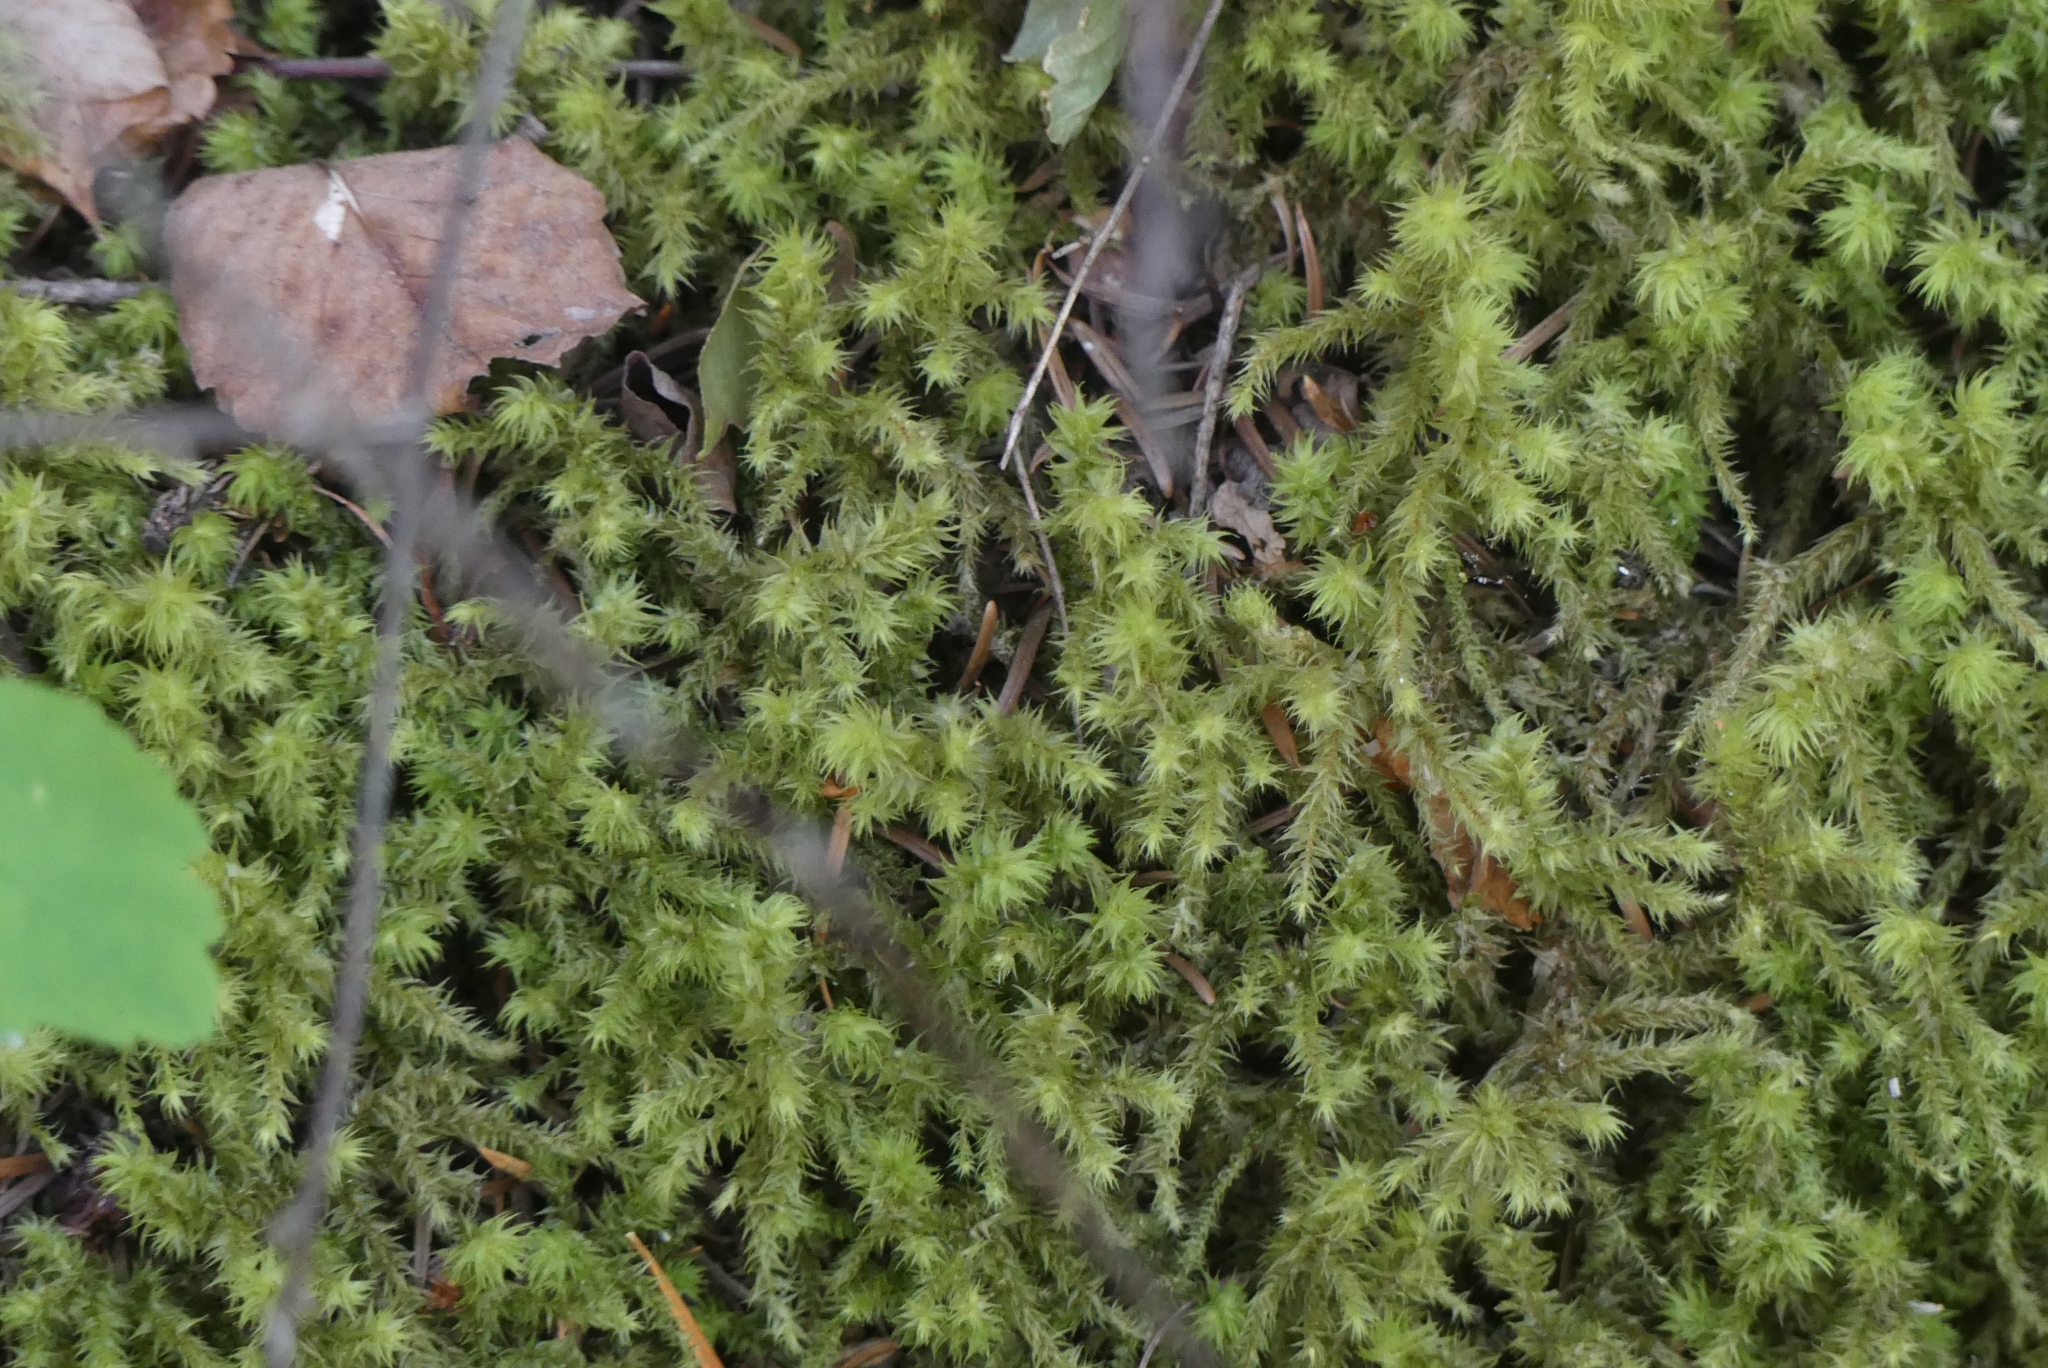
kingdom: Plantae
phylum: Bryophyta
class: Bryopsida
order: Hypnales
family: Hylocomiaceae
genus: Hylocomiadelphus
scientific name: Hylocomiadelphus triquetrus
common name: Rough goose neck moss
